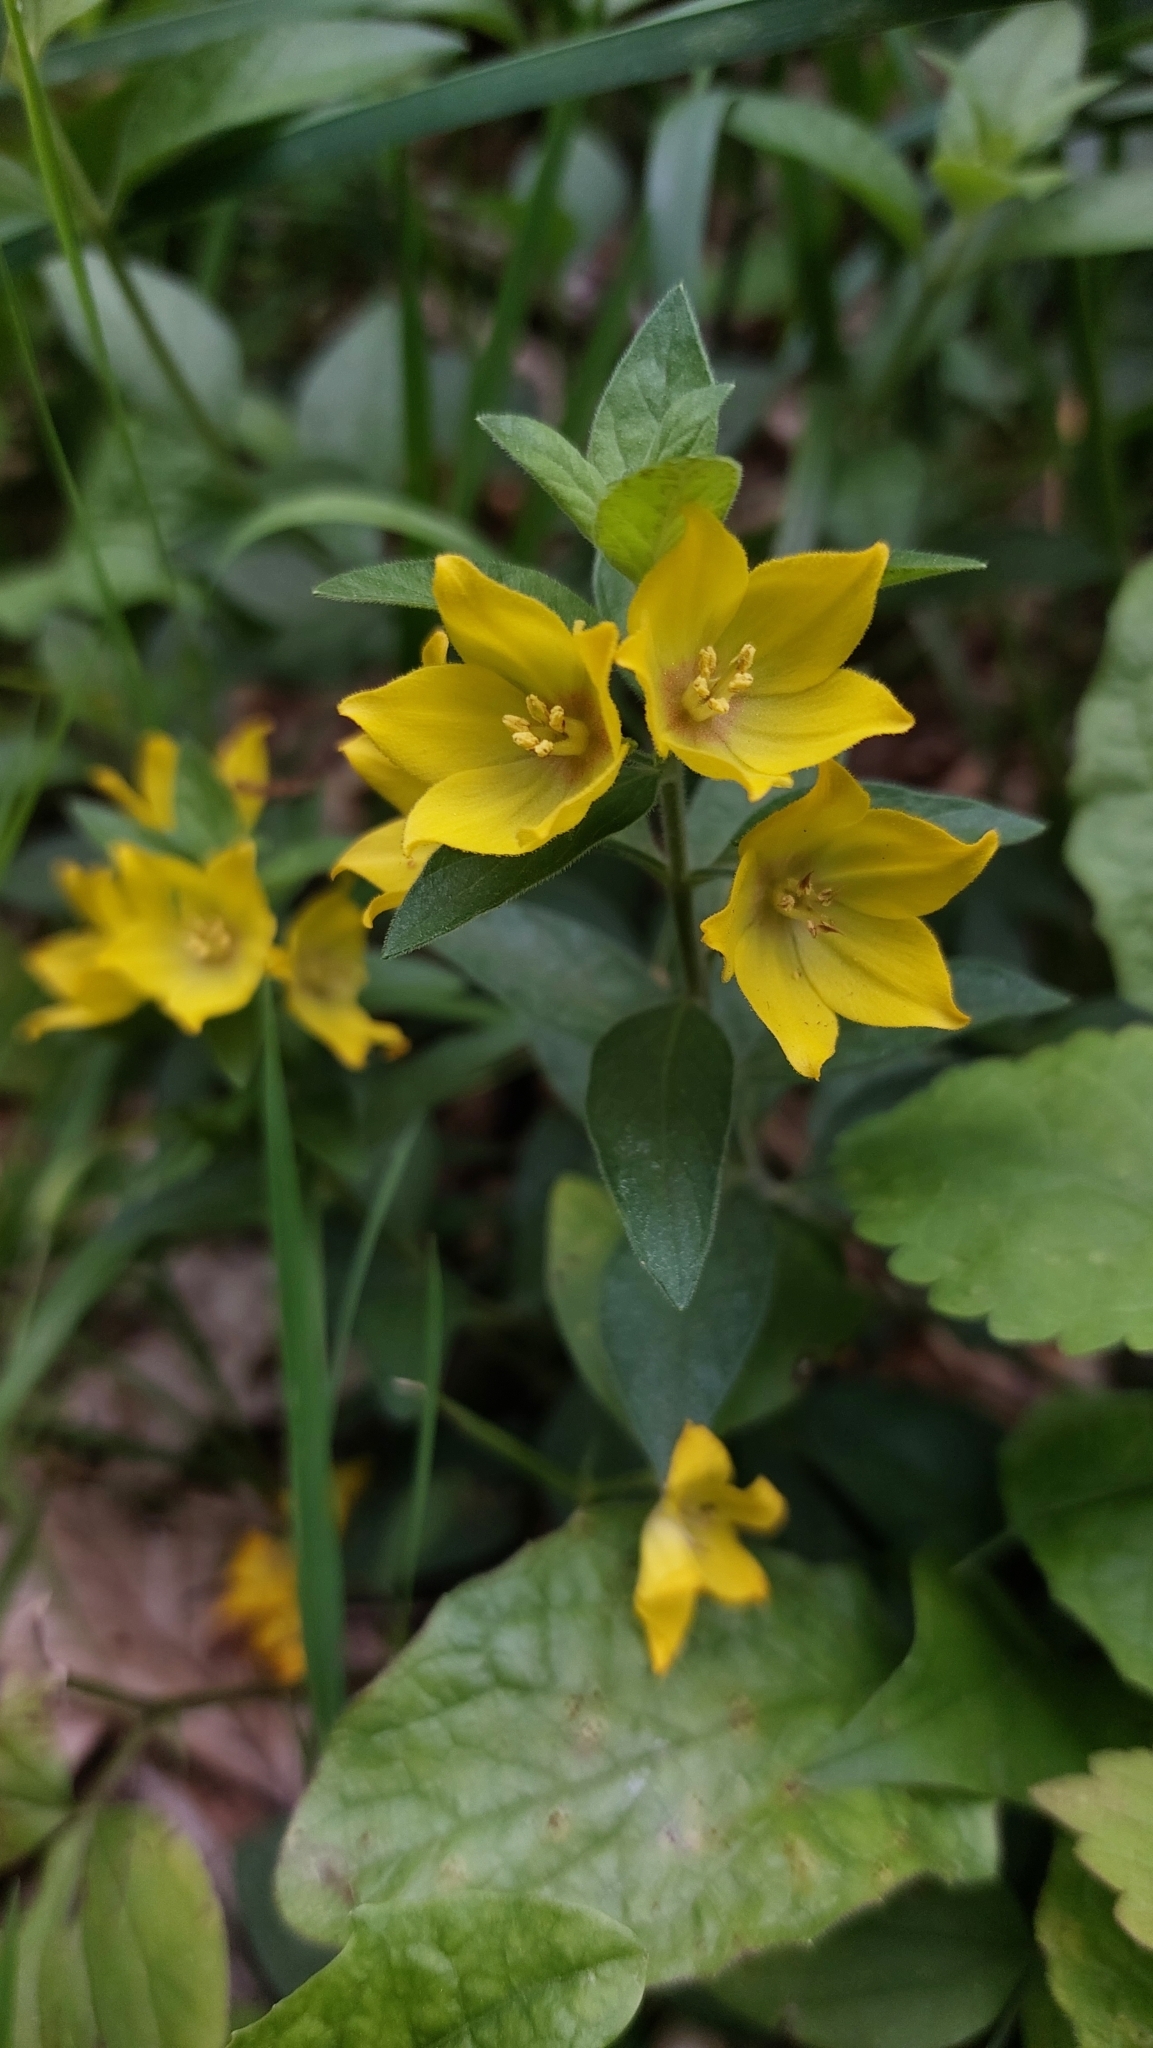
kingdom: Plantae
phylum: Tracheophyta
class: Magnoliopsida
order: Ericales
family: Primulaceae
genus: Lysimachia
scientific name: Lysimachia punctata
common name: Dotted loosestrife
